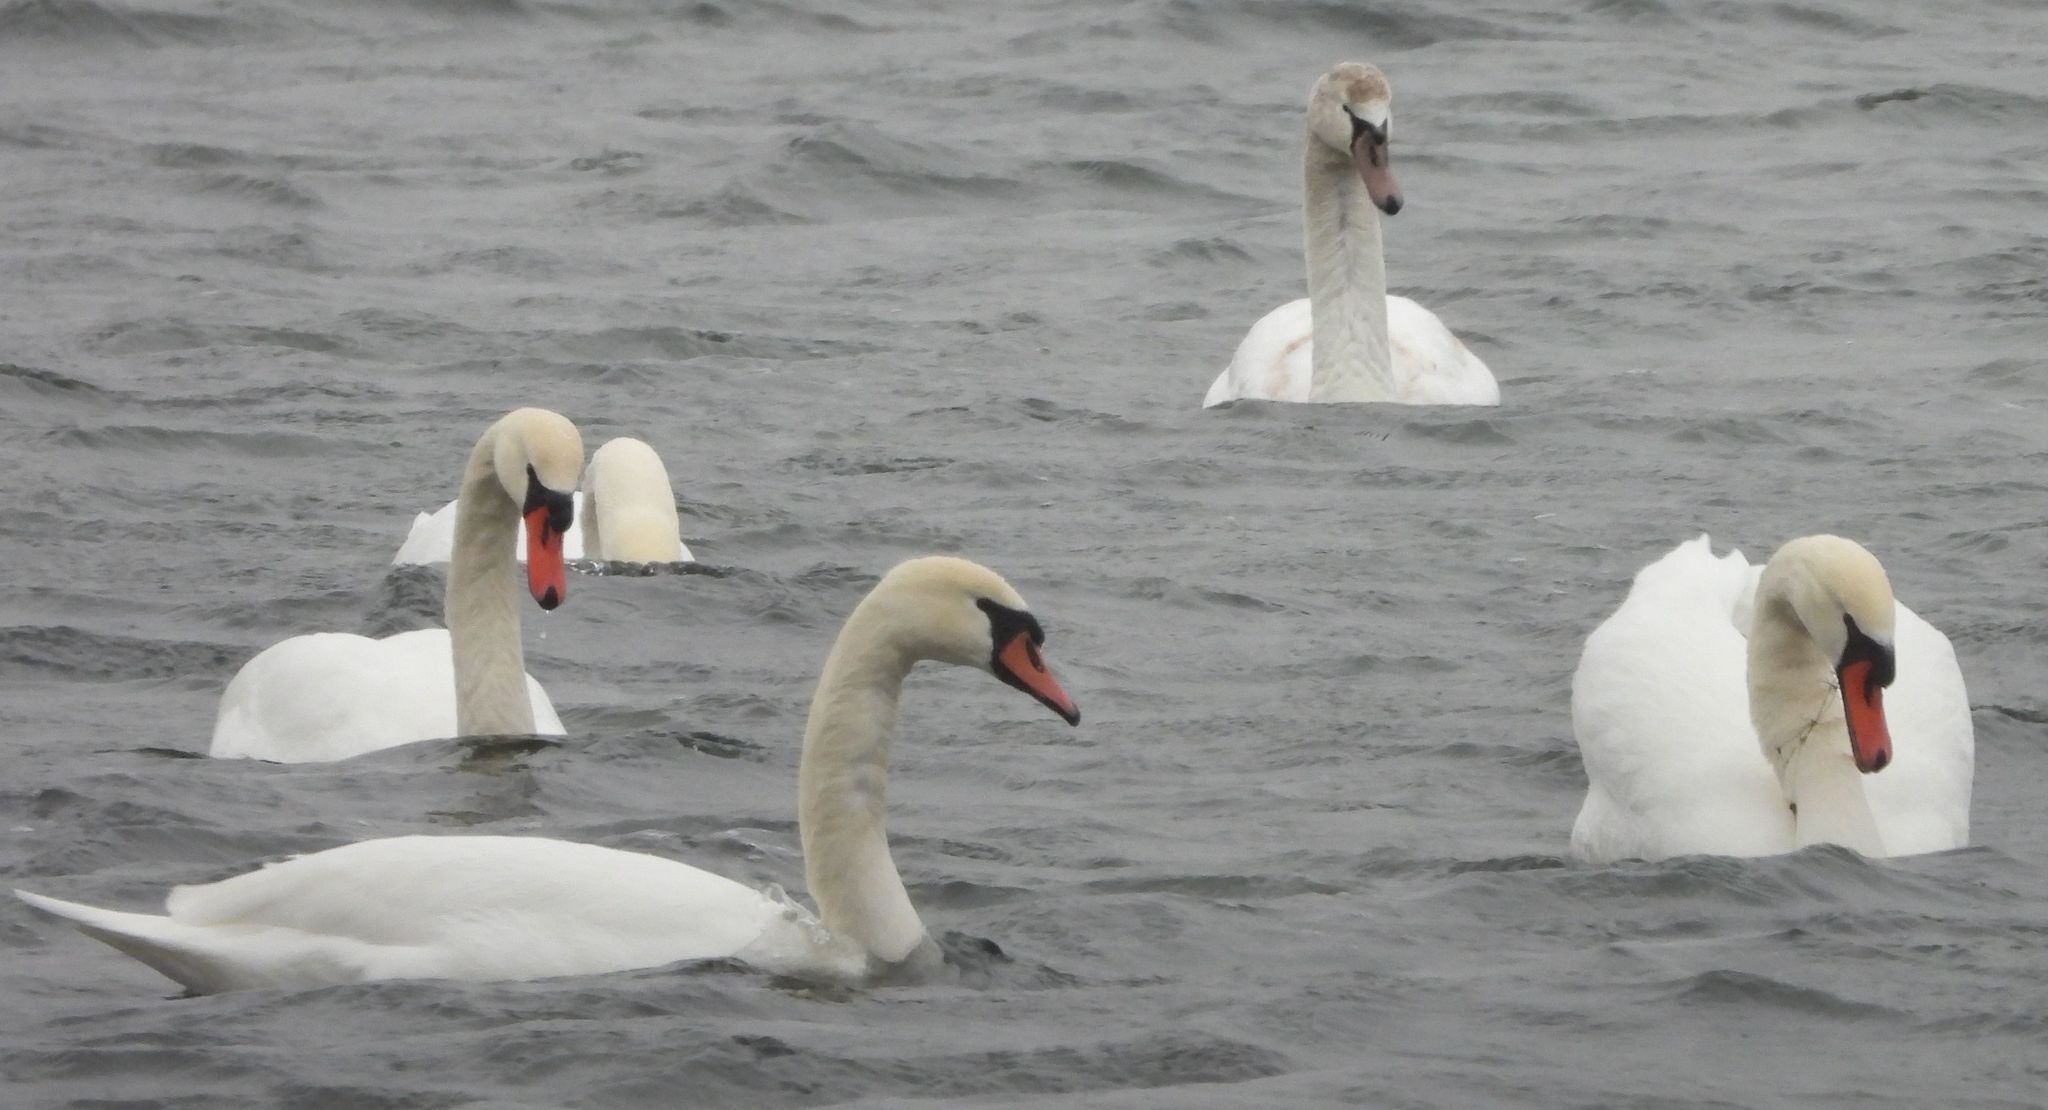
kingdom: Animalia
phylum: Chordata
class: Aves
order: Anseriformes
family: Anatidae
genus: Cygnus
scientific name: Cygnus olor
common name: Mute swan
